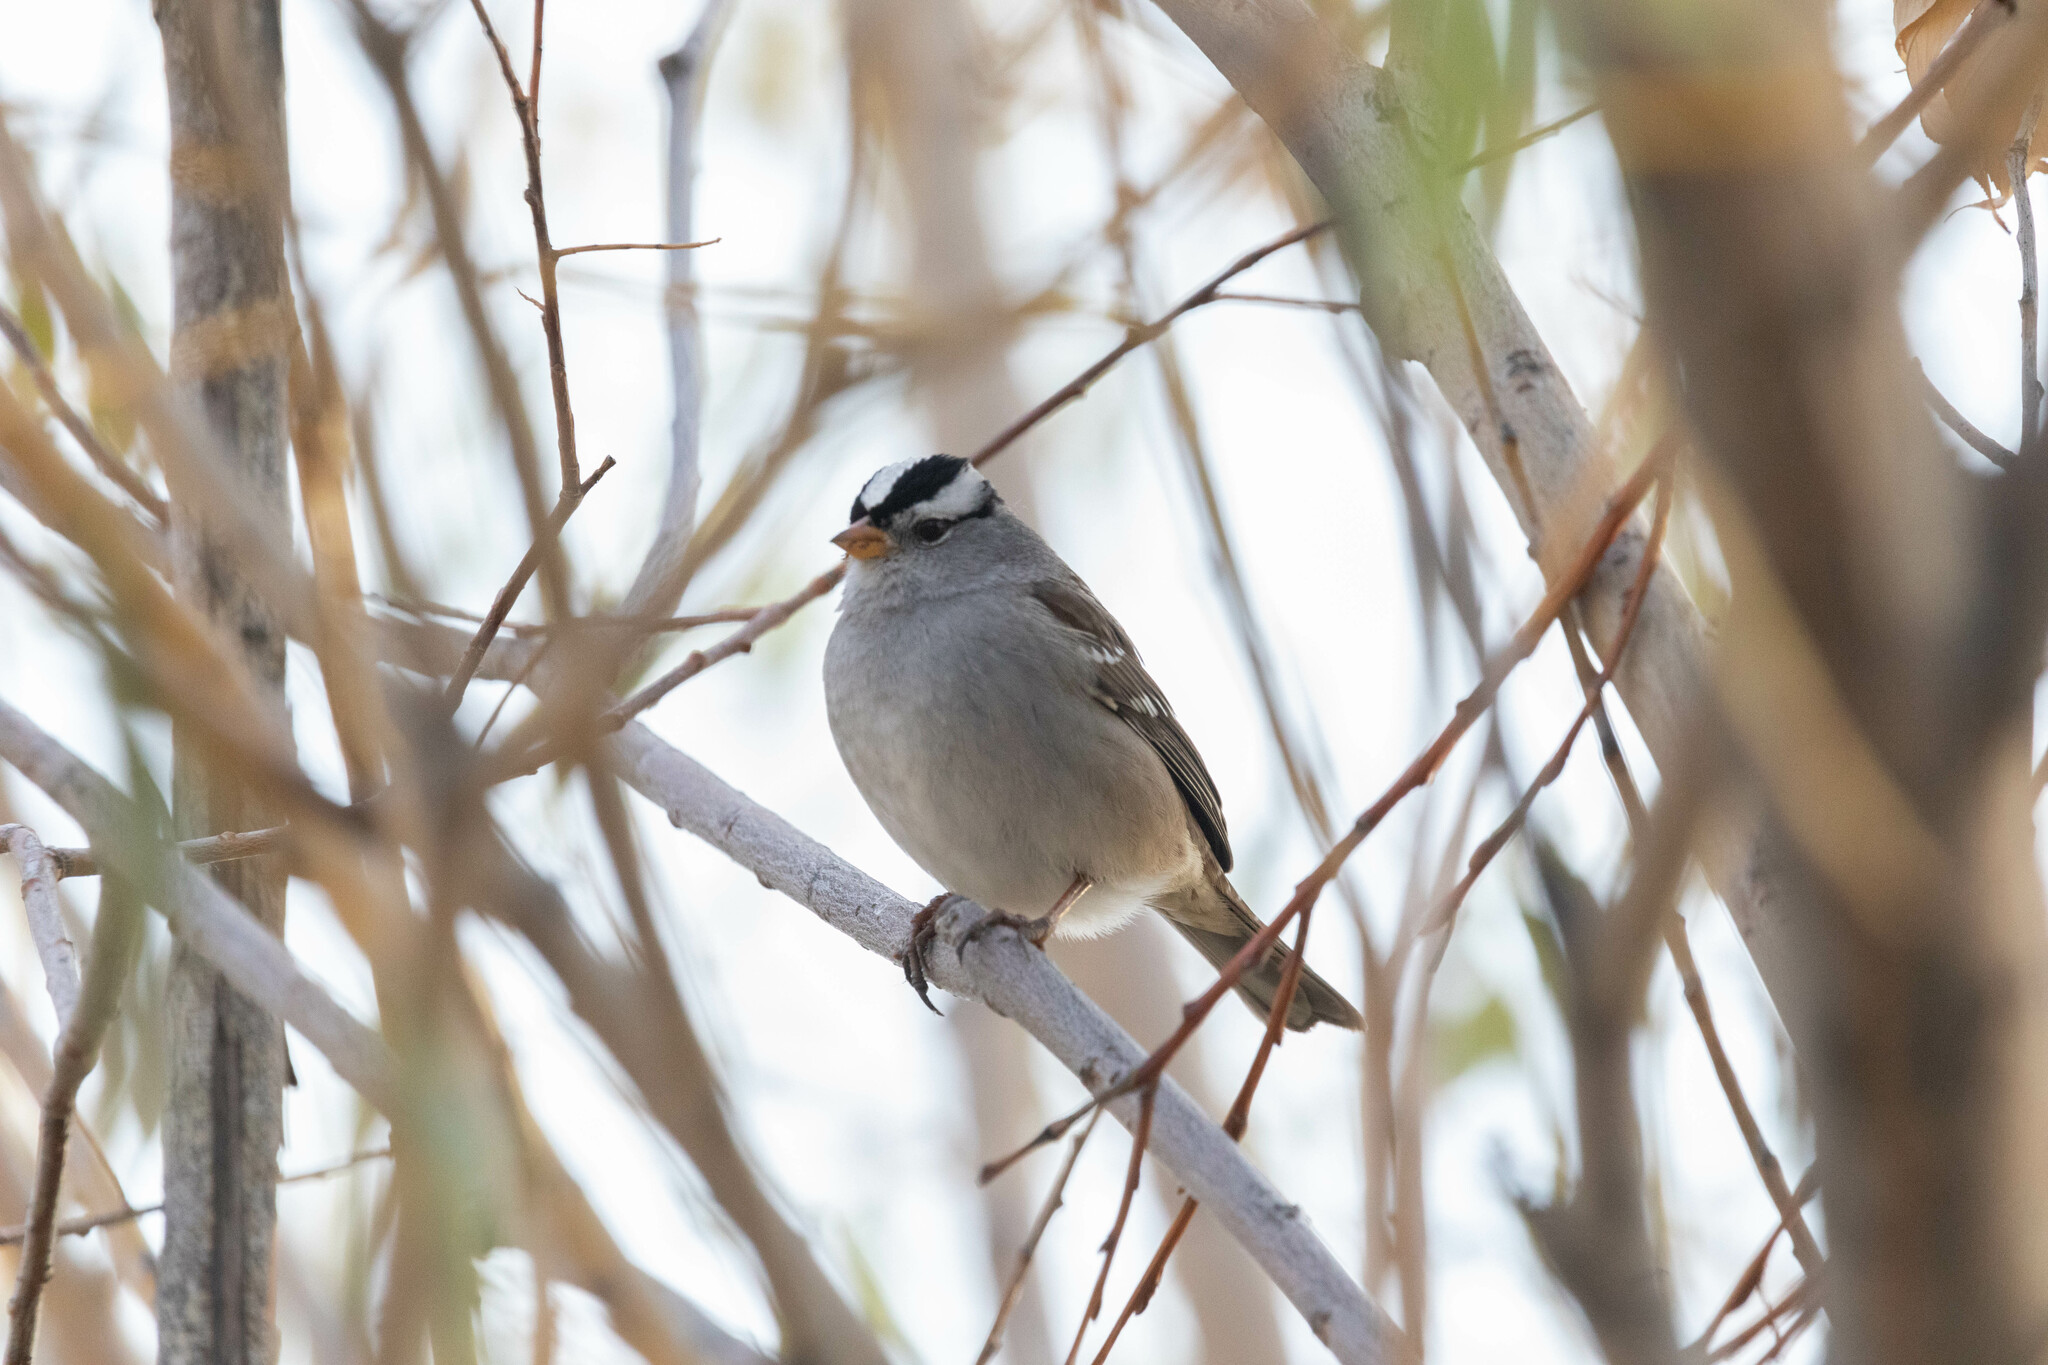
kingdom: Animalia
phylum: Chordata
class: Aves
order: Passeriformes
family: Passerellidae
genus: Zonotrichia
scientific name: Zonotrichia leucophrys
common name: White-crowned sparrow
